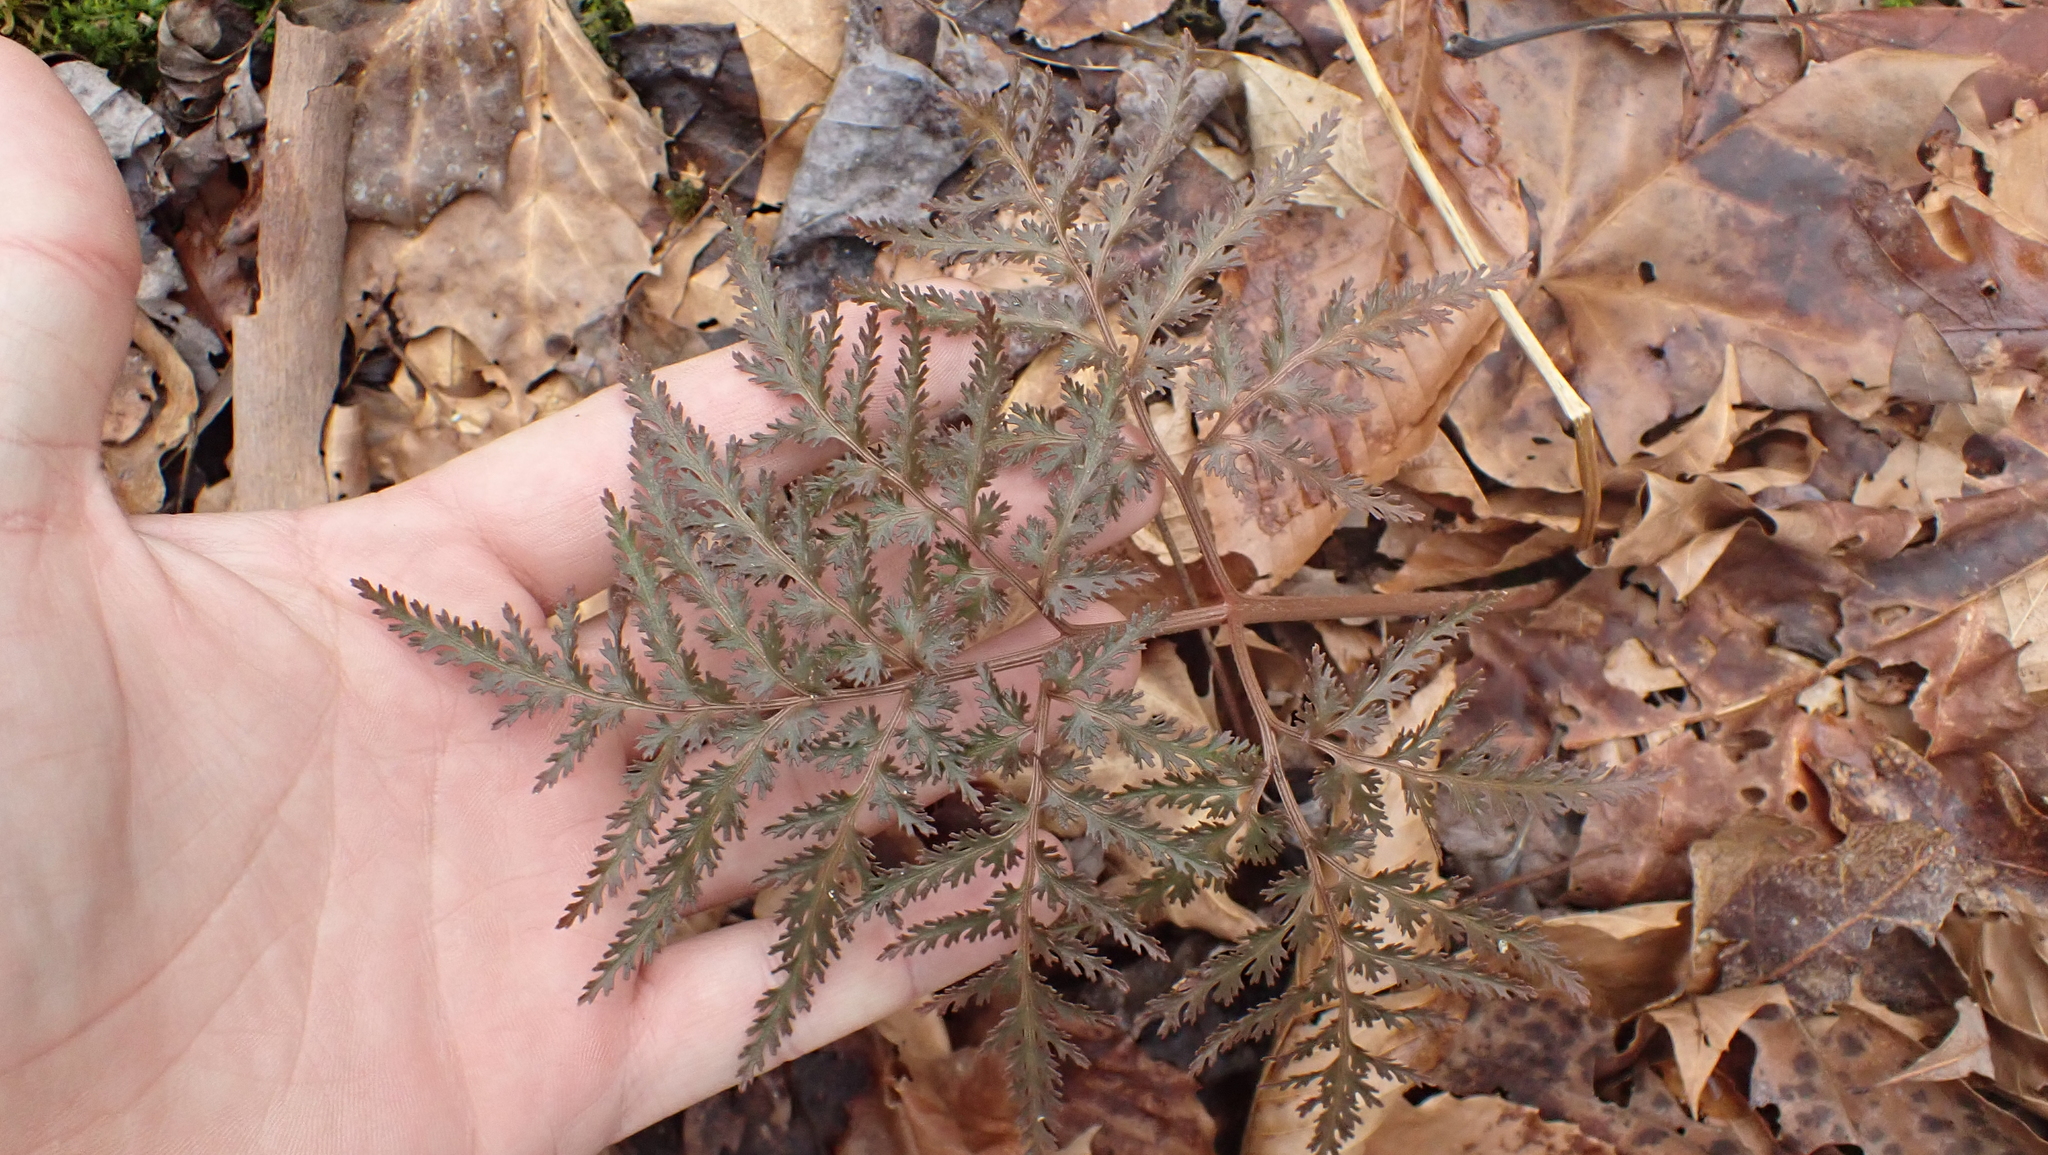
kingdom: Plantae
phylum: Tracheophyta
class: Polypodiopsida
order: Ophioglossales
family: Ophioglossaceae
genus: Sceptridium
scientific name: Sceptridium dissectum
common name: Cut-leaved grapefern
